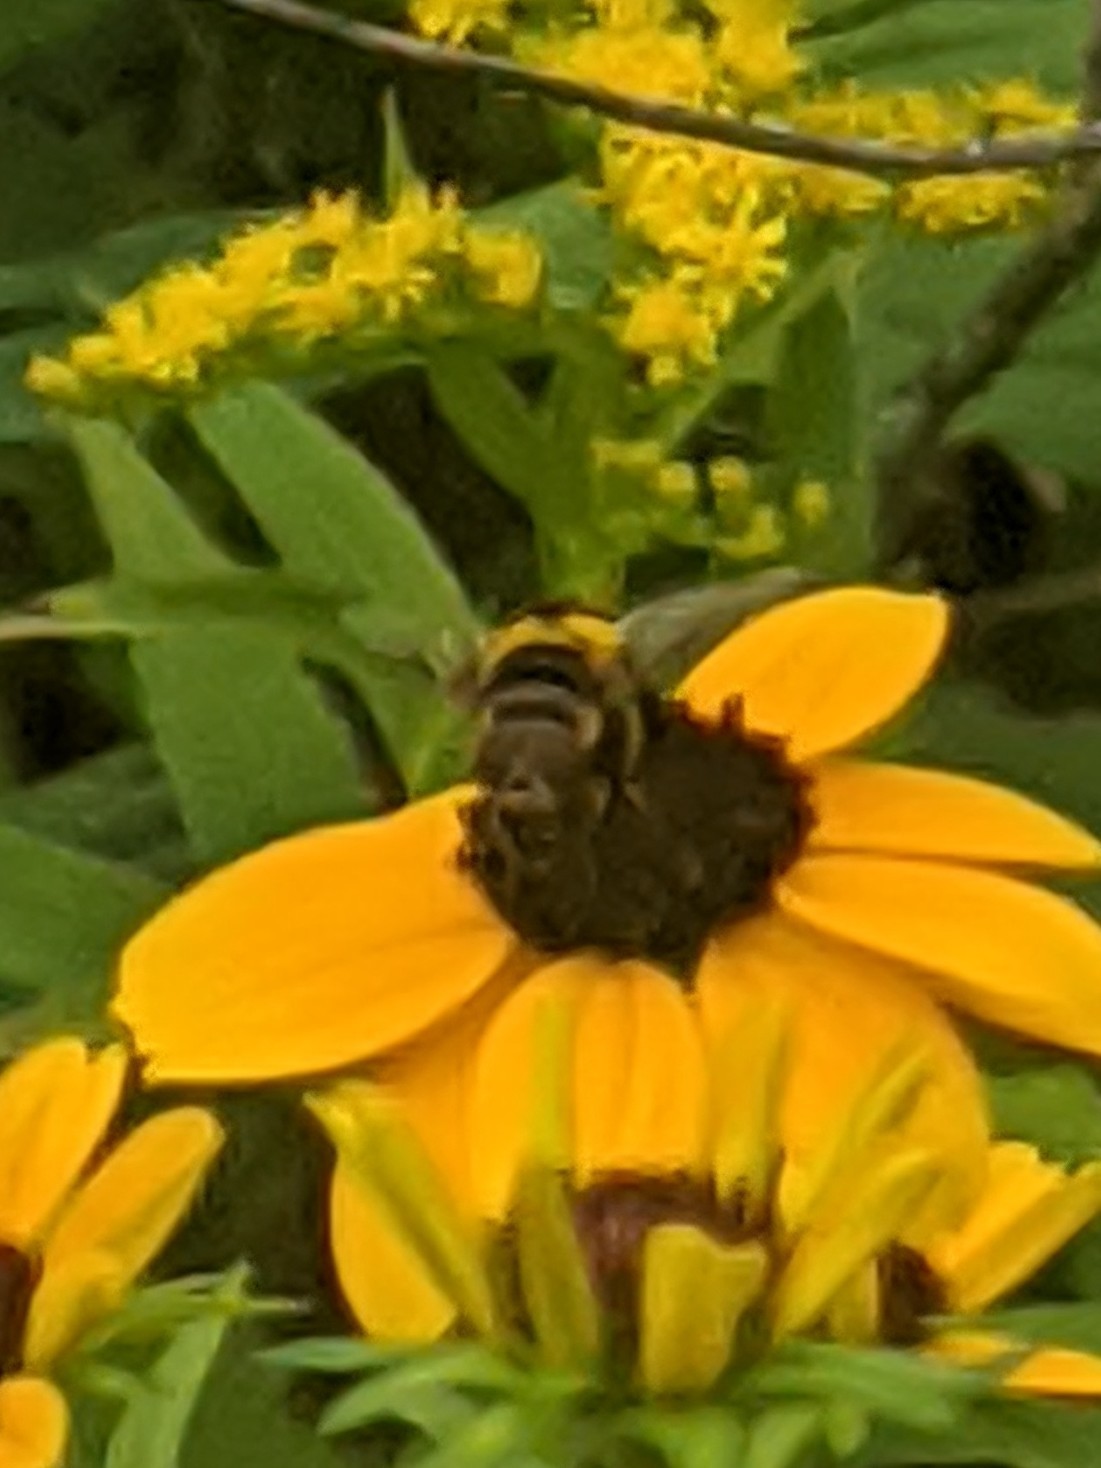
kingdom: Animalia
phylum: Arthropoda
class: Insecta
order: Diptera
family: Syrphidae
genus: Eristalis
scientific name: Eristalis transversa
